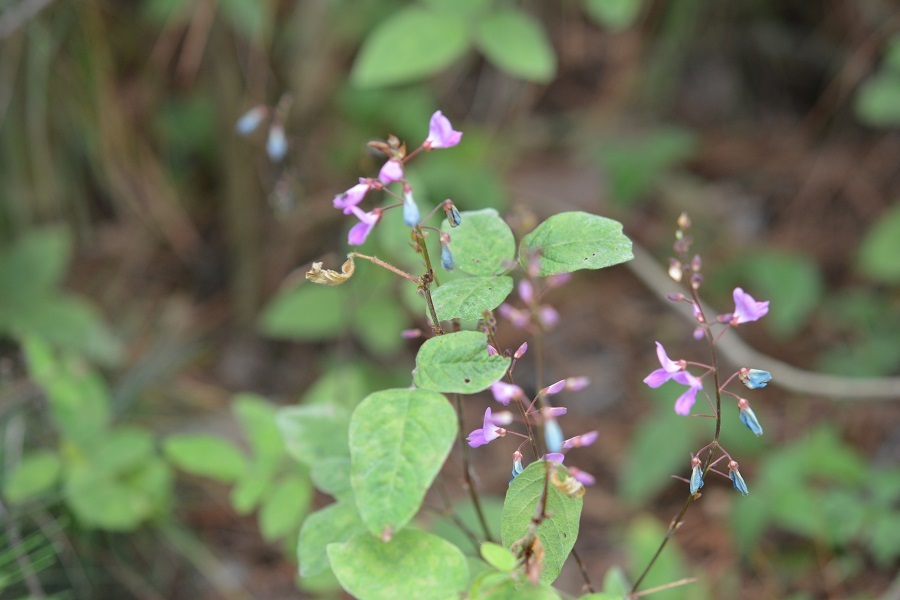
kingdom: Plantae
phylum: Tracheophyta
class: Magnoliopsida
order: Fabales
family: Fabaceae
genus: Desmodium
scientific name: Desmodium pringlei
